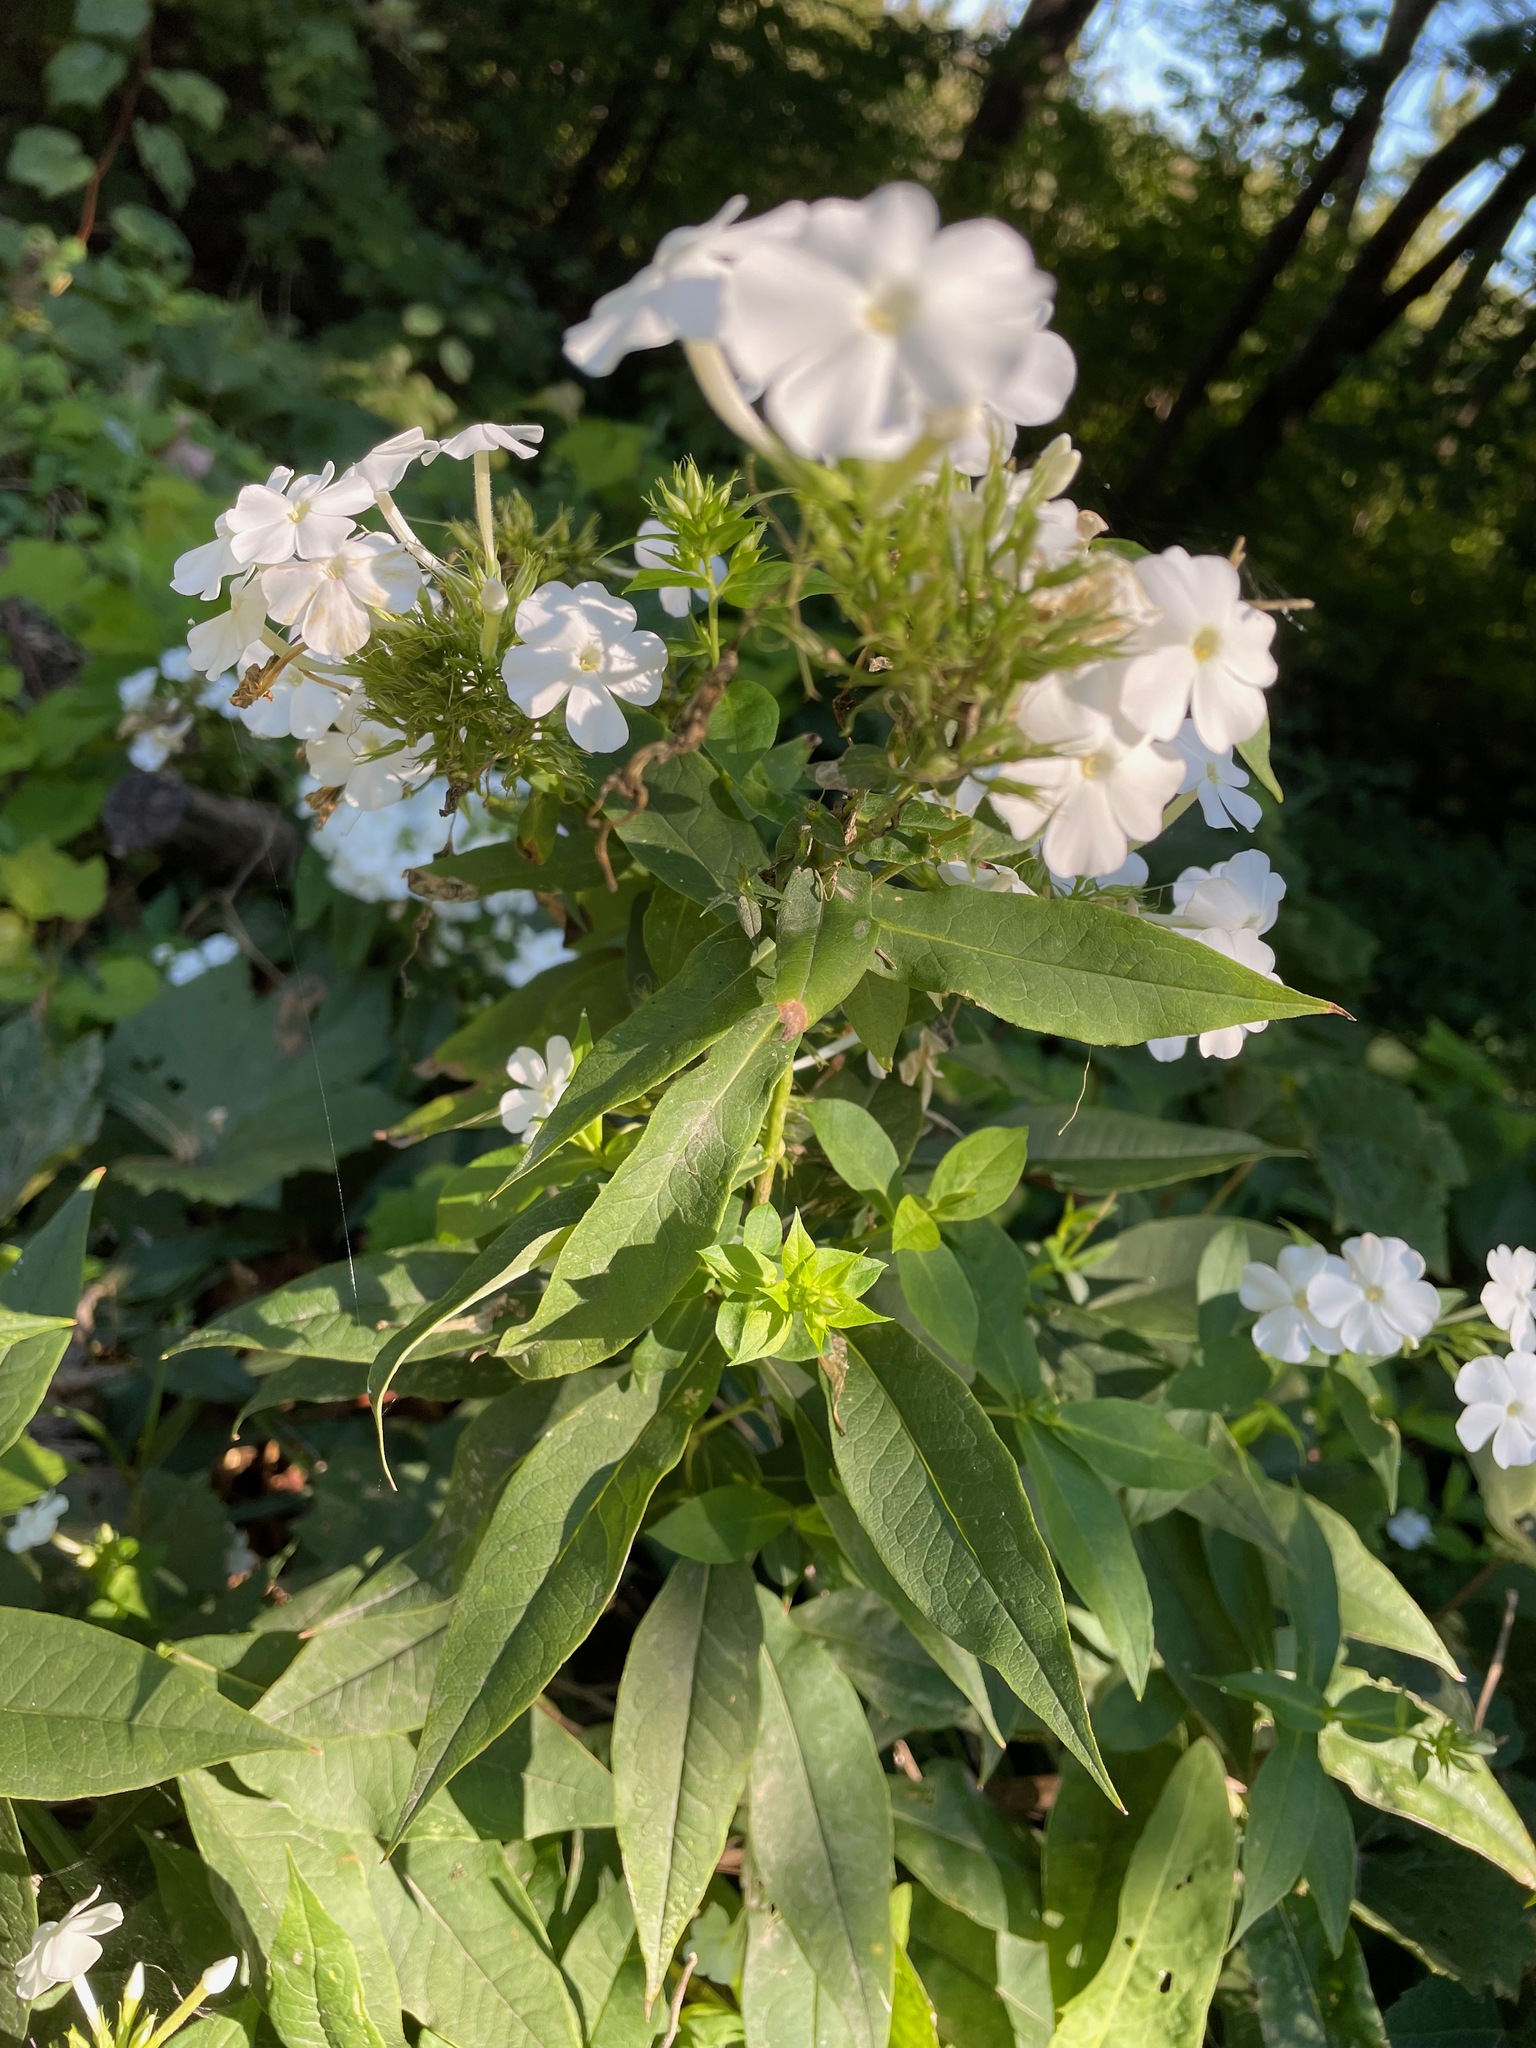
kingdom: Plantae
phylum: Tracheophyta
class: Magnoliopsida
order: Ericales
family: Polemoniaceae
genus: Phlox
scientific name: Phlox paniculata
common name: Fall phlox
